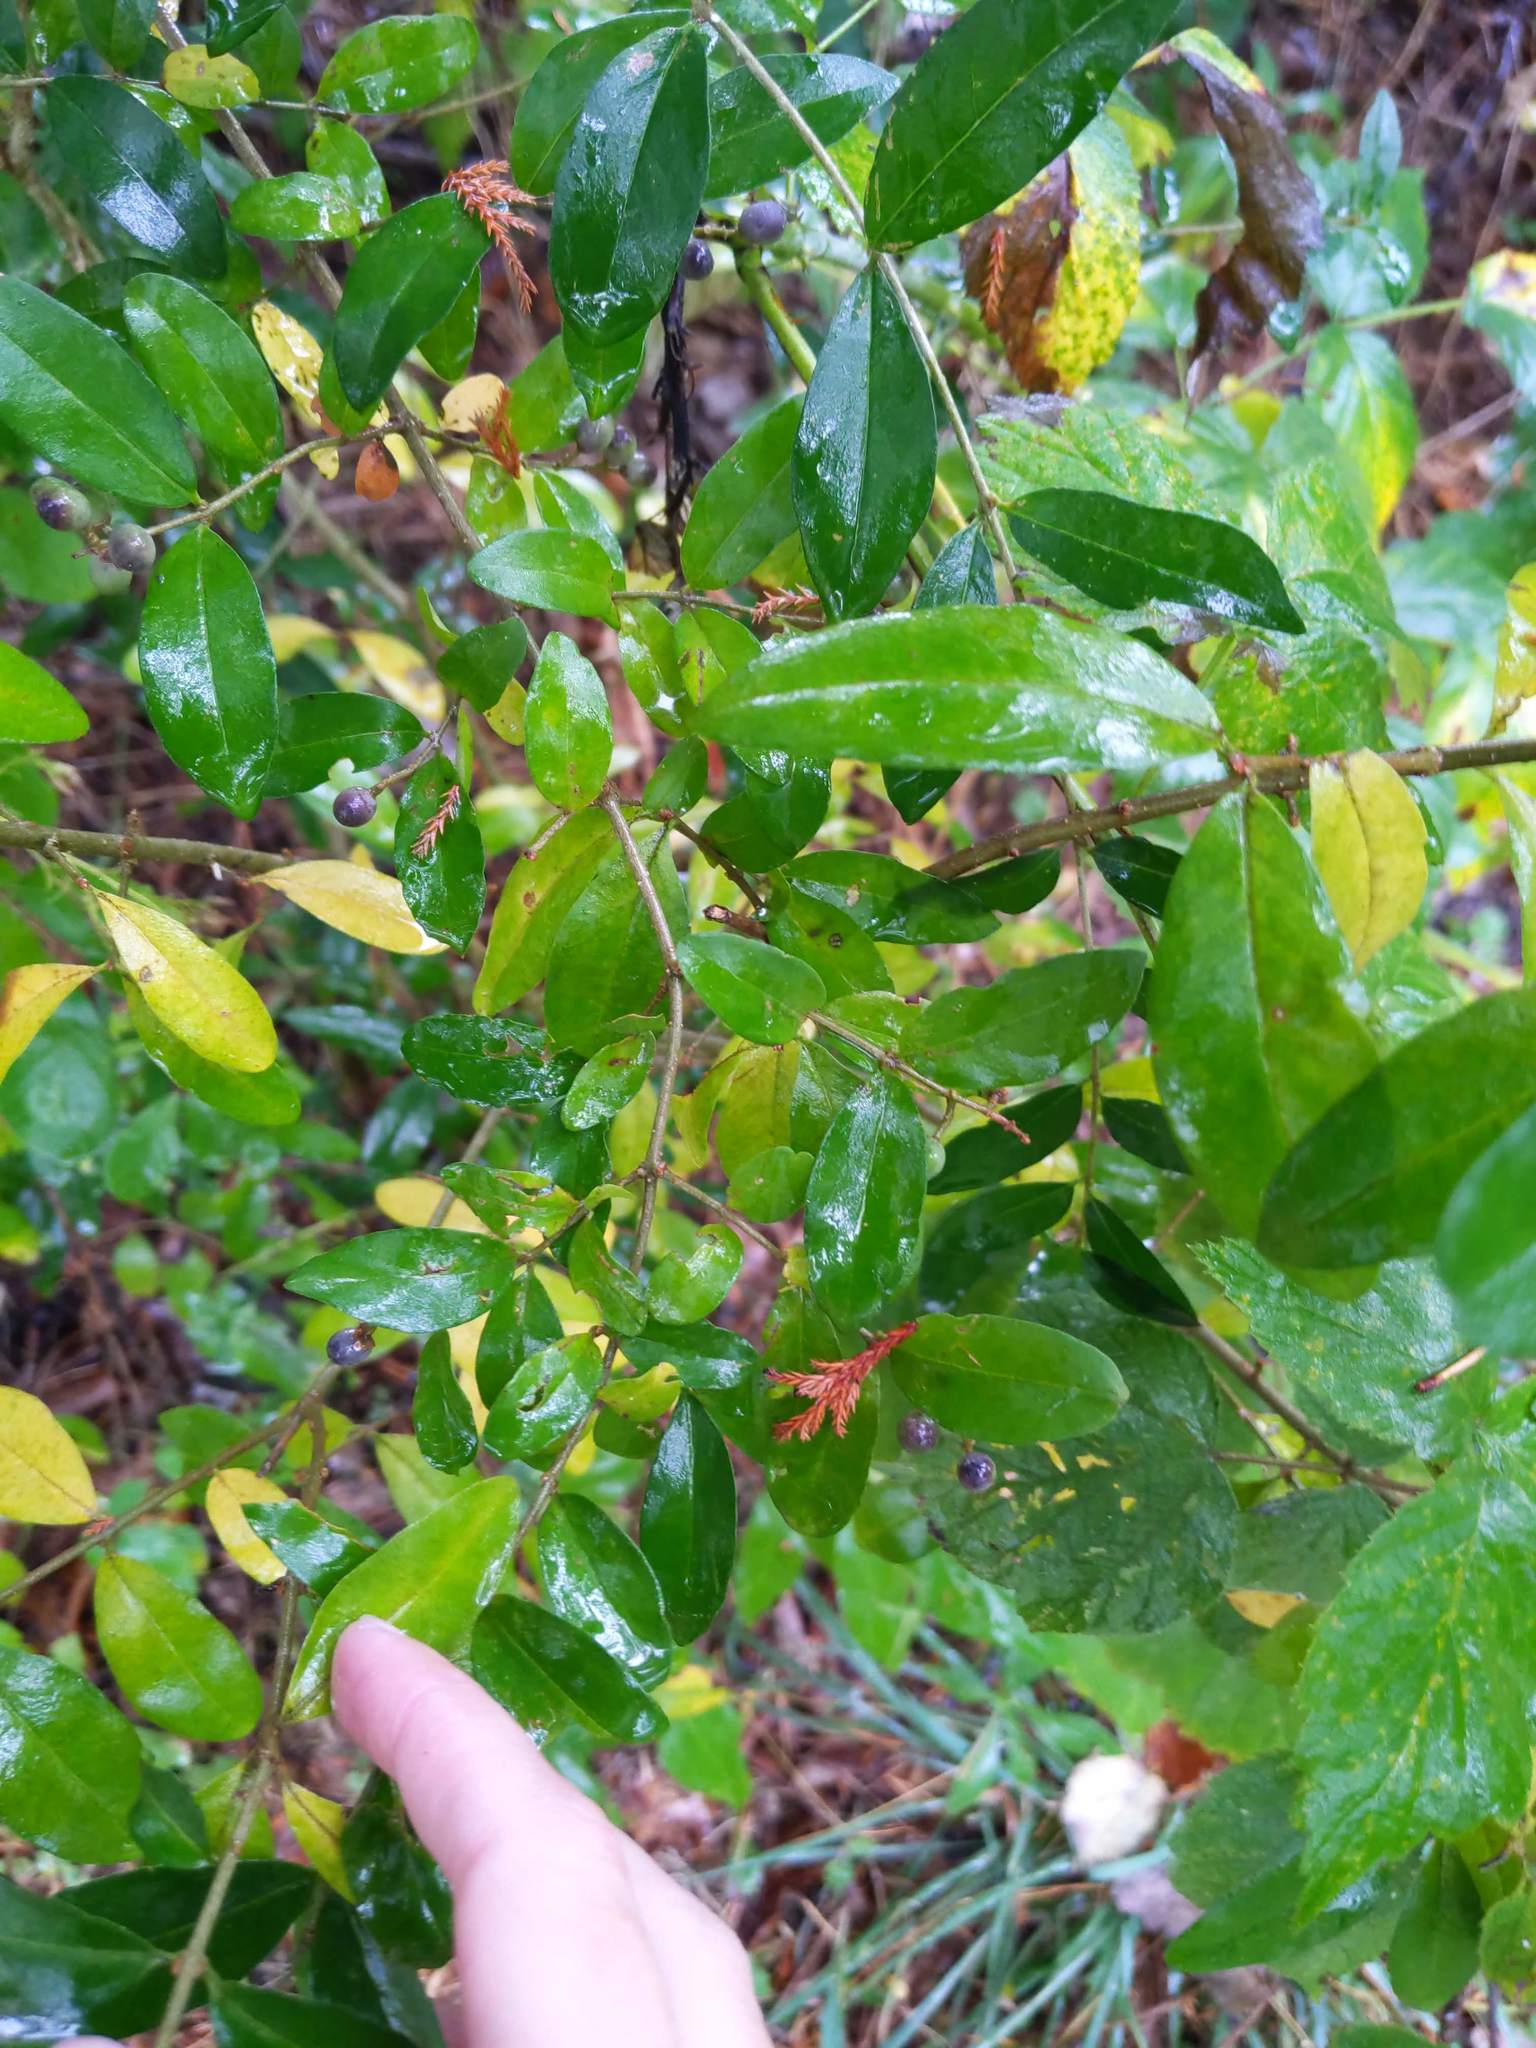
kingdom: Plantae
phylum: Tracheophyta
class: Magnoliopsida
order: Lamiales
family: Oleaceae
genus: Ligustrum
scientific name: Ligustrum obtusifolium
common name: Border privet
